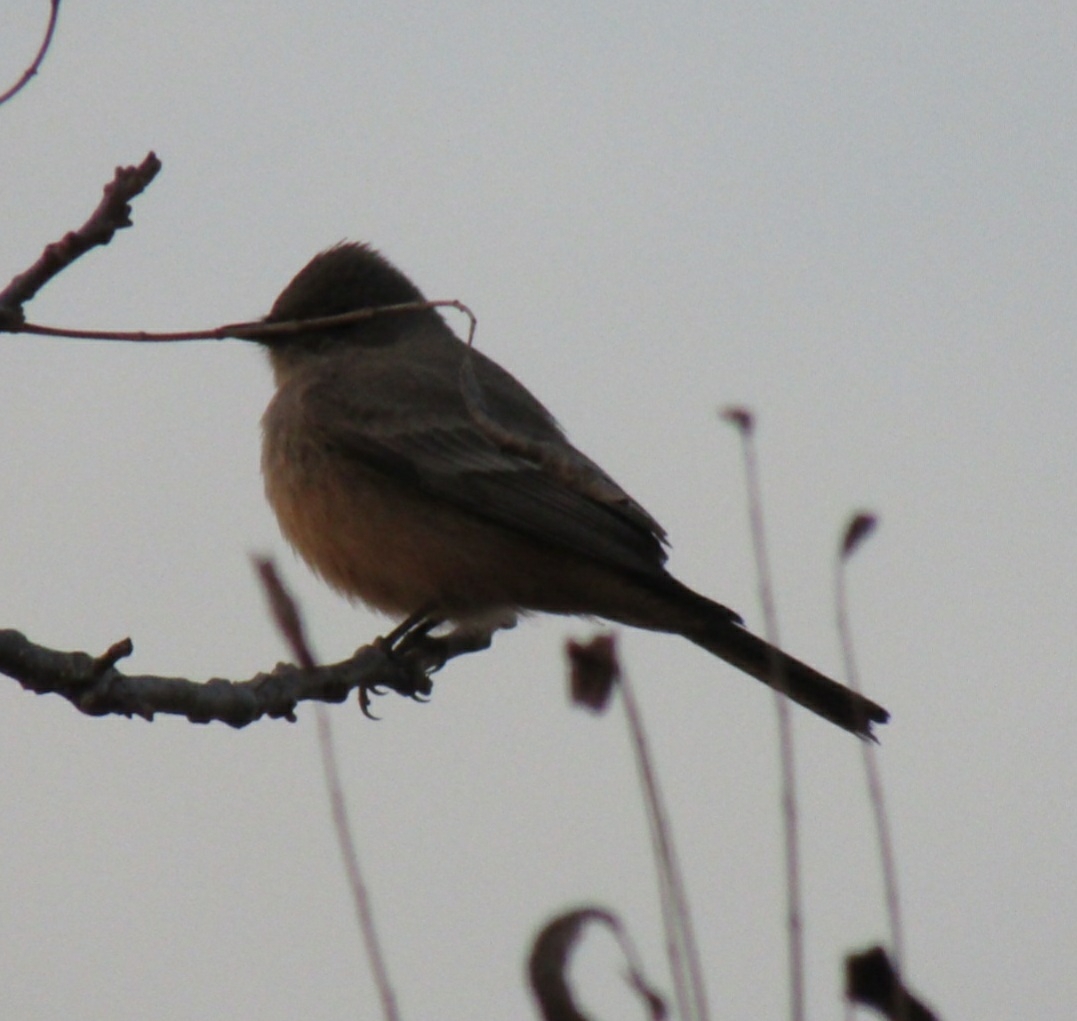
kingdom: Animalia
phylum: Chordata
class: Aves
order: Passeriformes
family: Tyrannidae
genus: Sayornis
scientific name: Sayornis saya
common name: Say's phoebe
